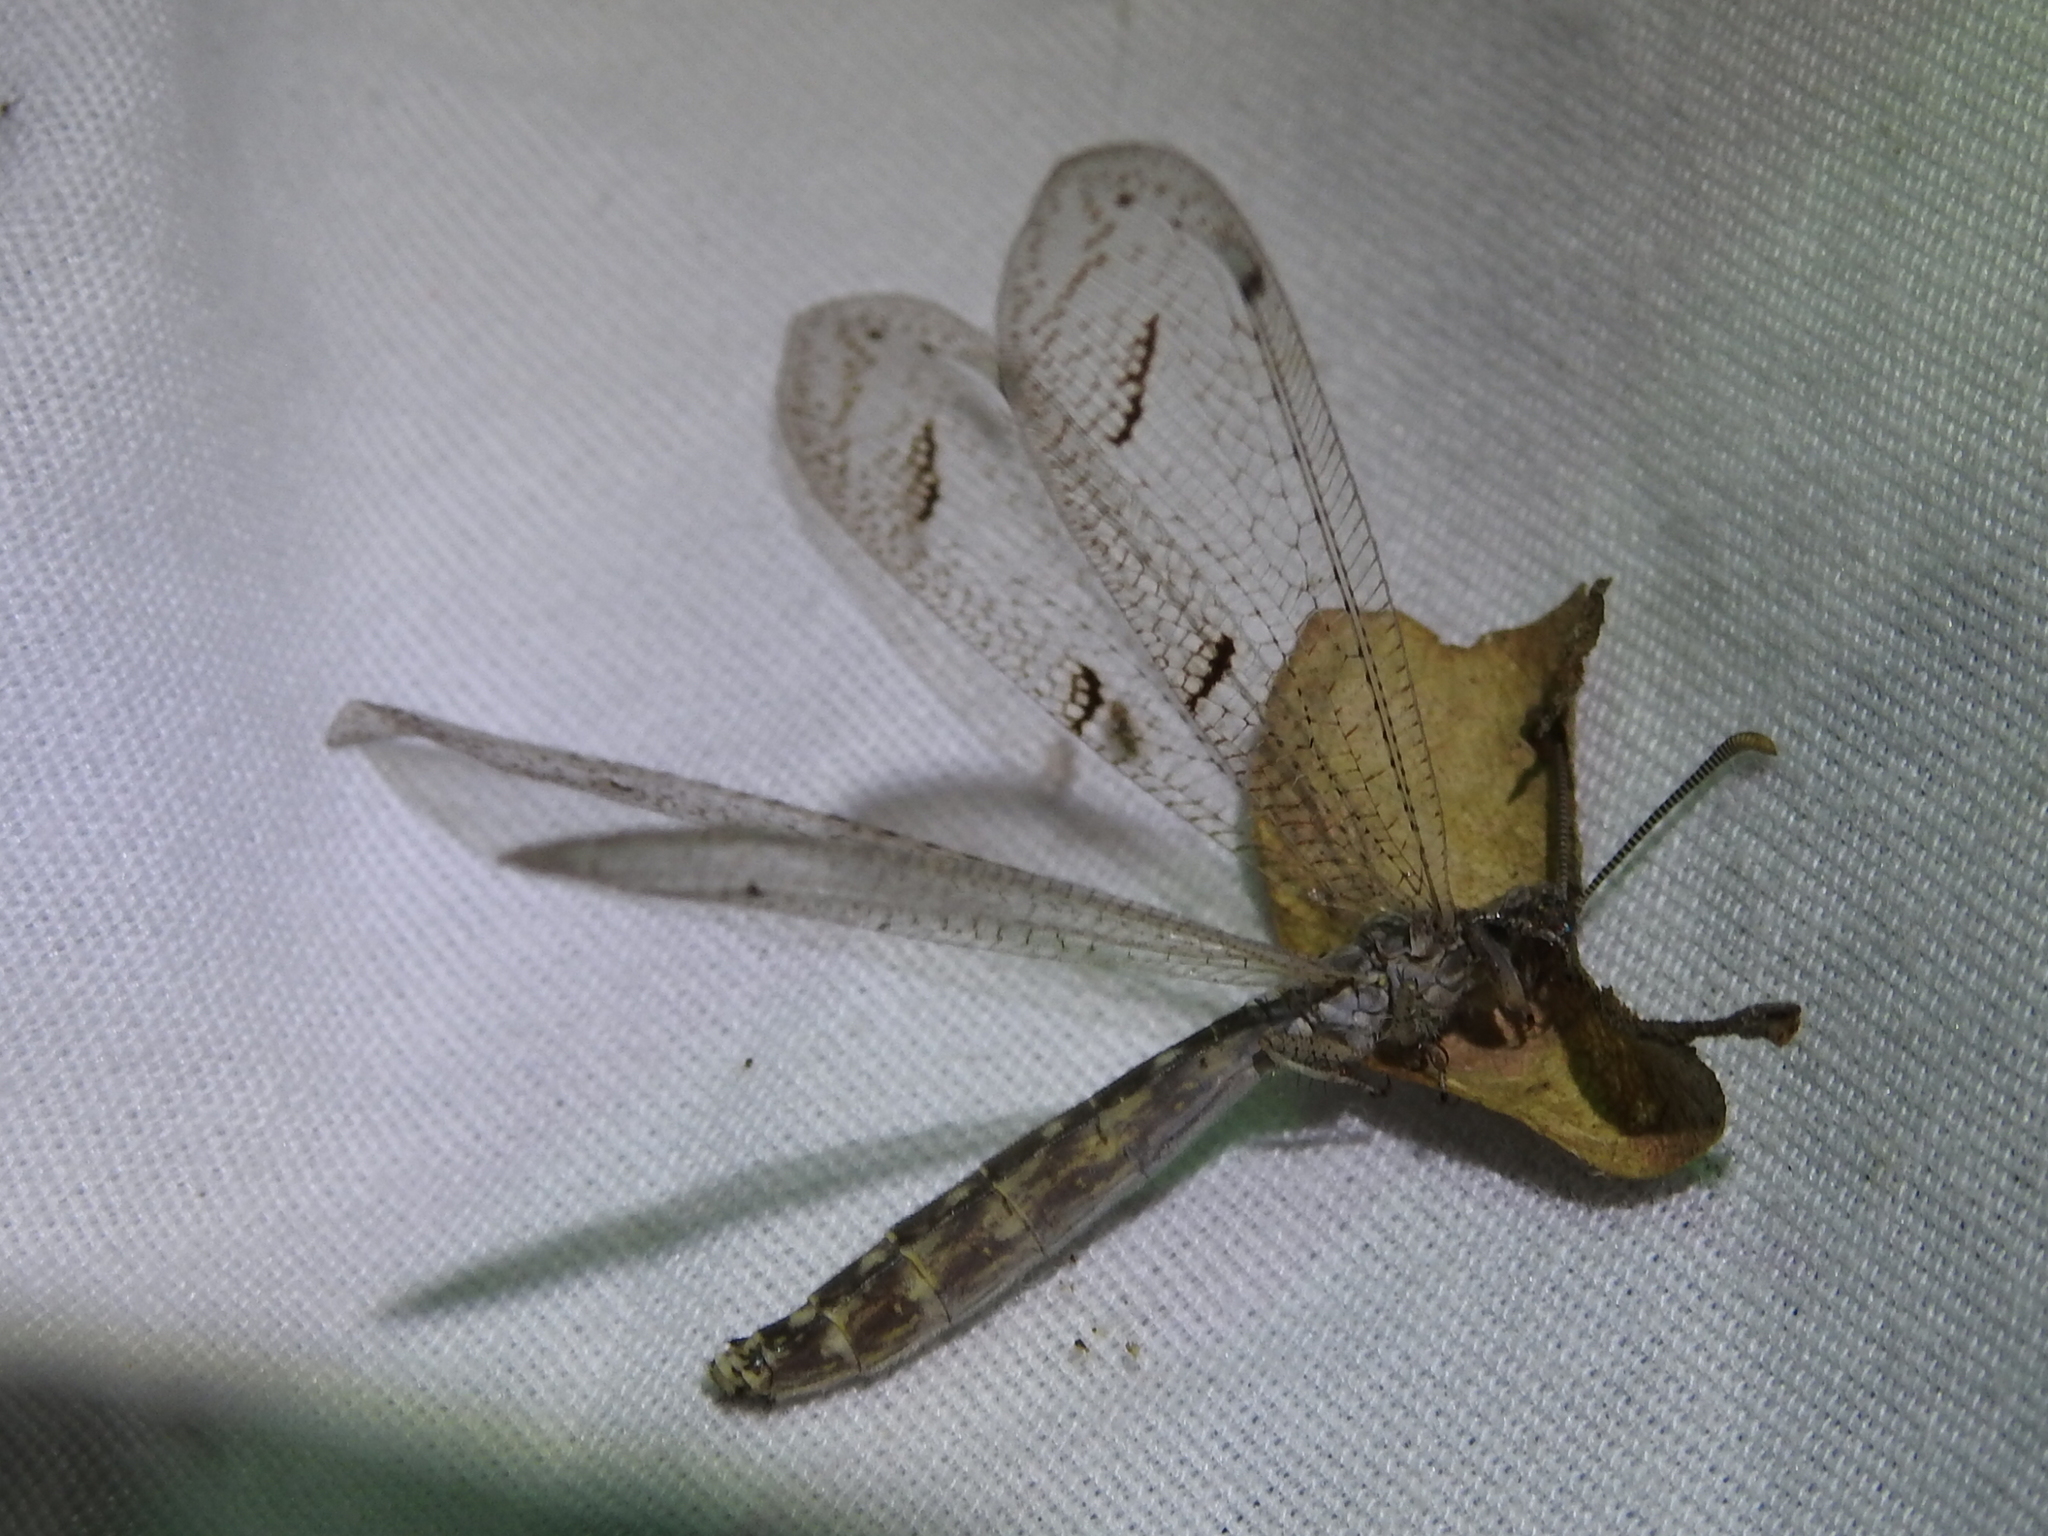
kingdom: Animalia
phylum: Arthropoda
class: Insecta
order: Neuroptera
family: Myrmeleontidae
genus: Euptilon
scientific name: Euptilon ornatum
